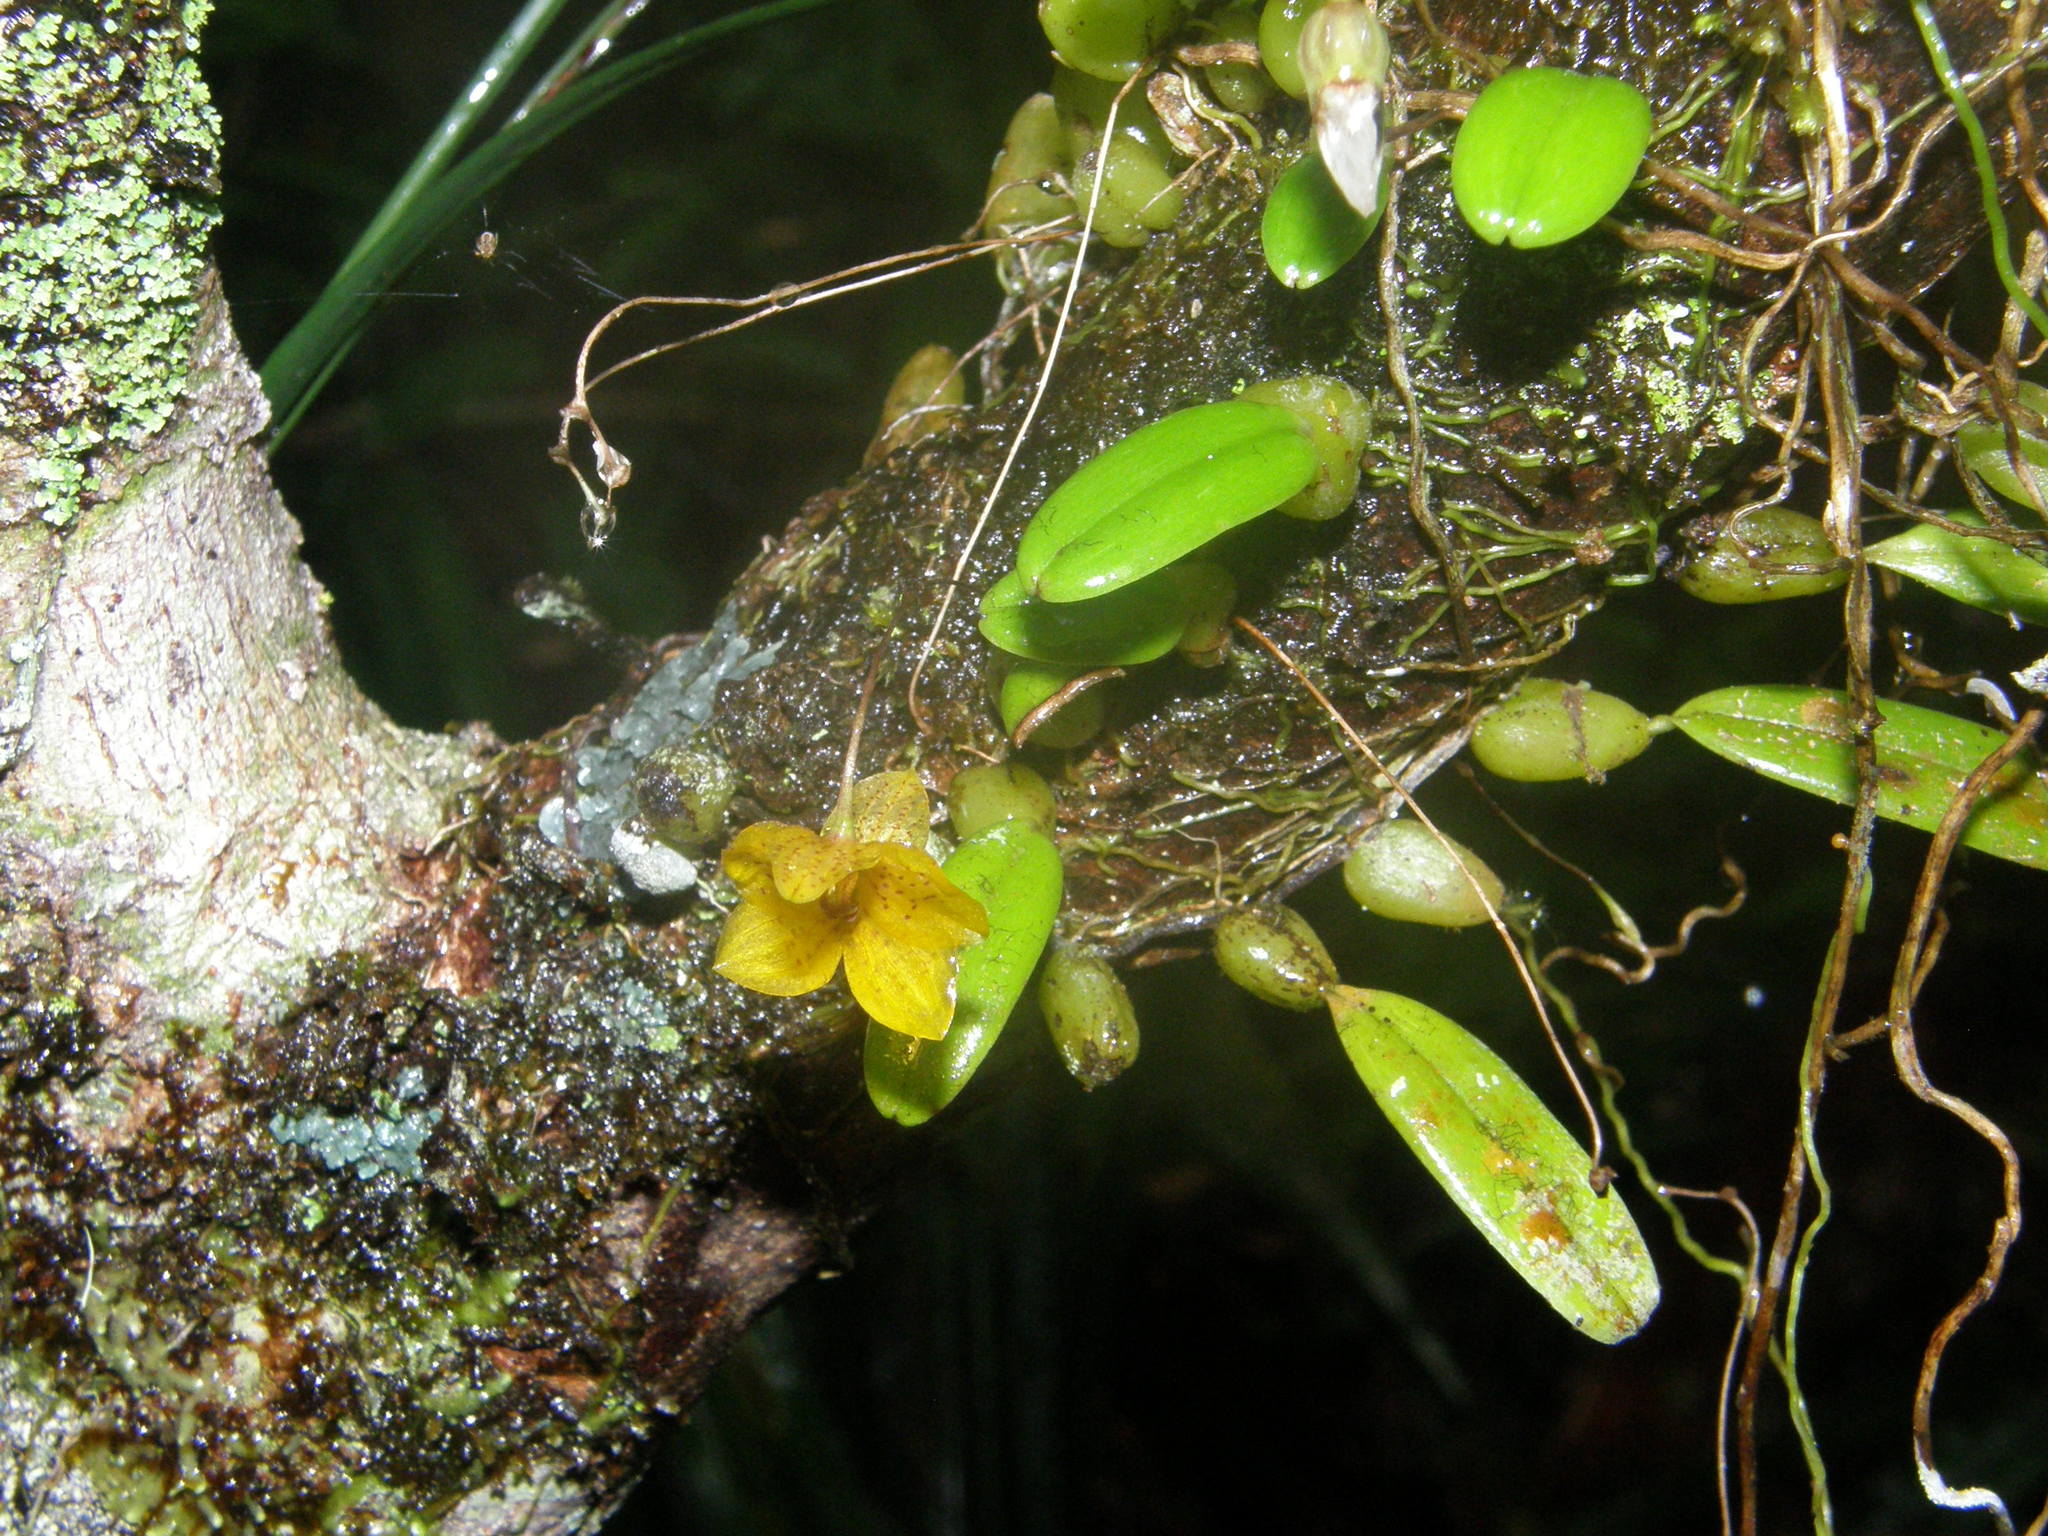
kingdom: Plantae
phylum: Tracheophyta
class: Liliopsida
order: Asparagales
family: Orchidaceae
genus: Bulbophyllum
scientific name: Bulbophyllum analamazoatrae
